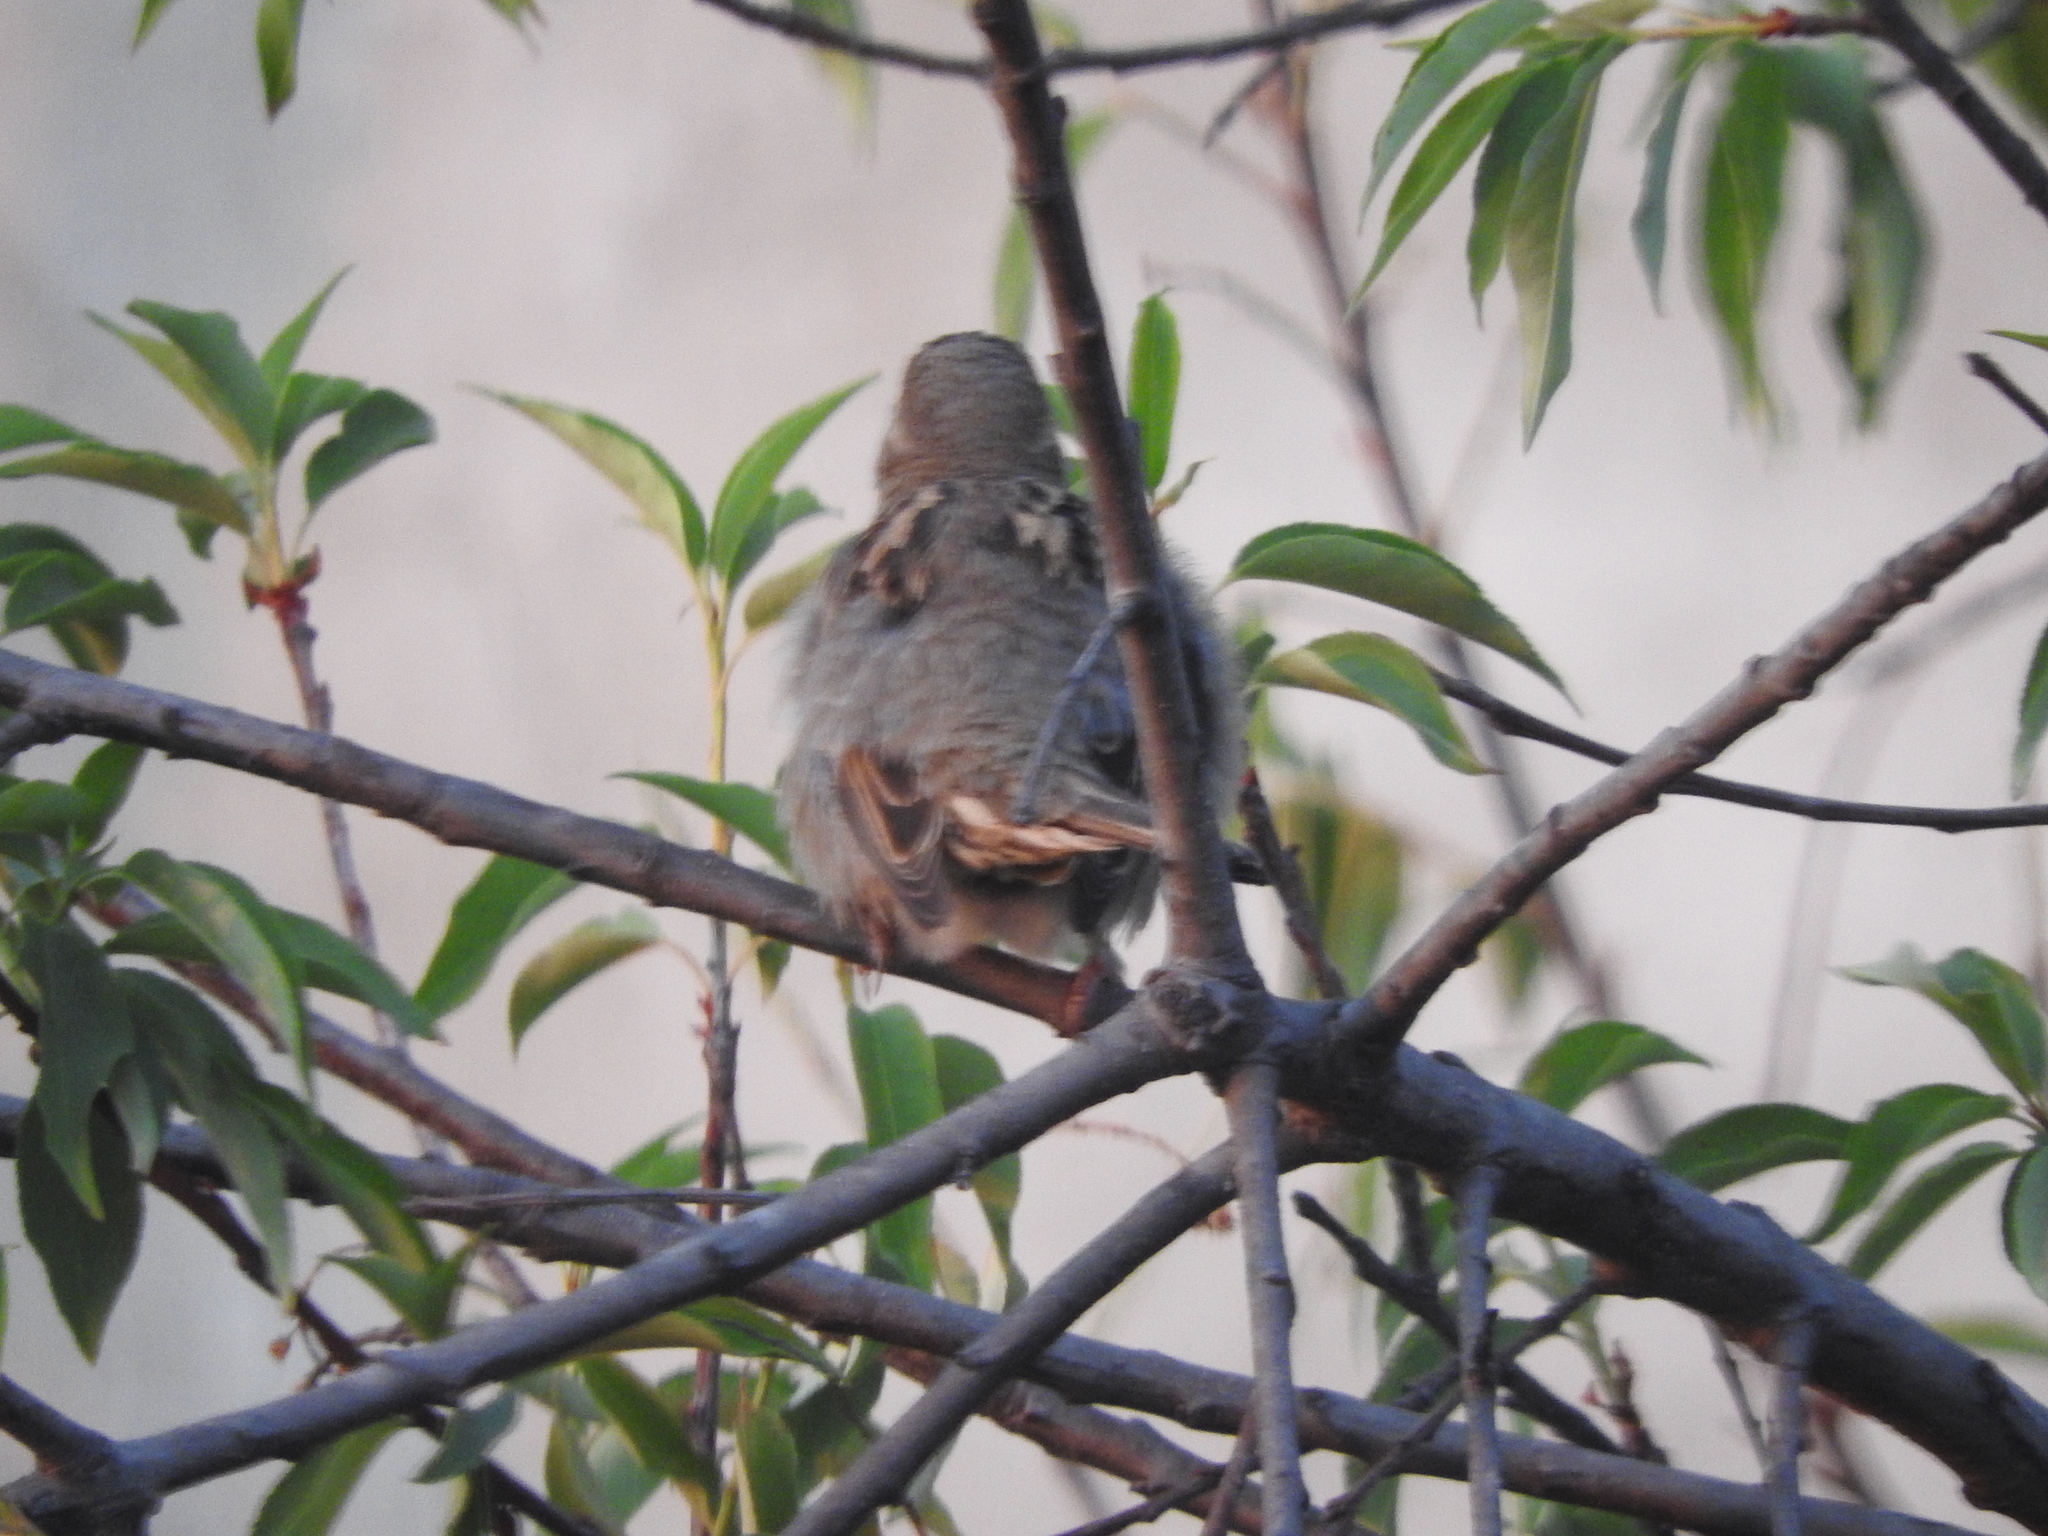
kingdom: Animalia
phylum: Chordata
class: Aves
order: Passeriformes
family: Passeridae
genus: Passer
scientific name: Passer domesticus
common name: House sparrow
